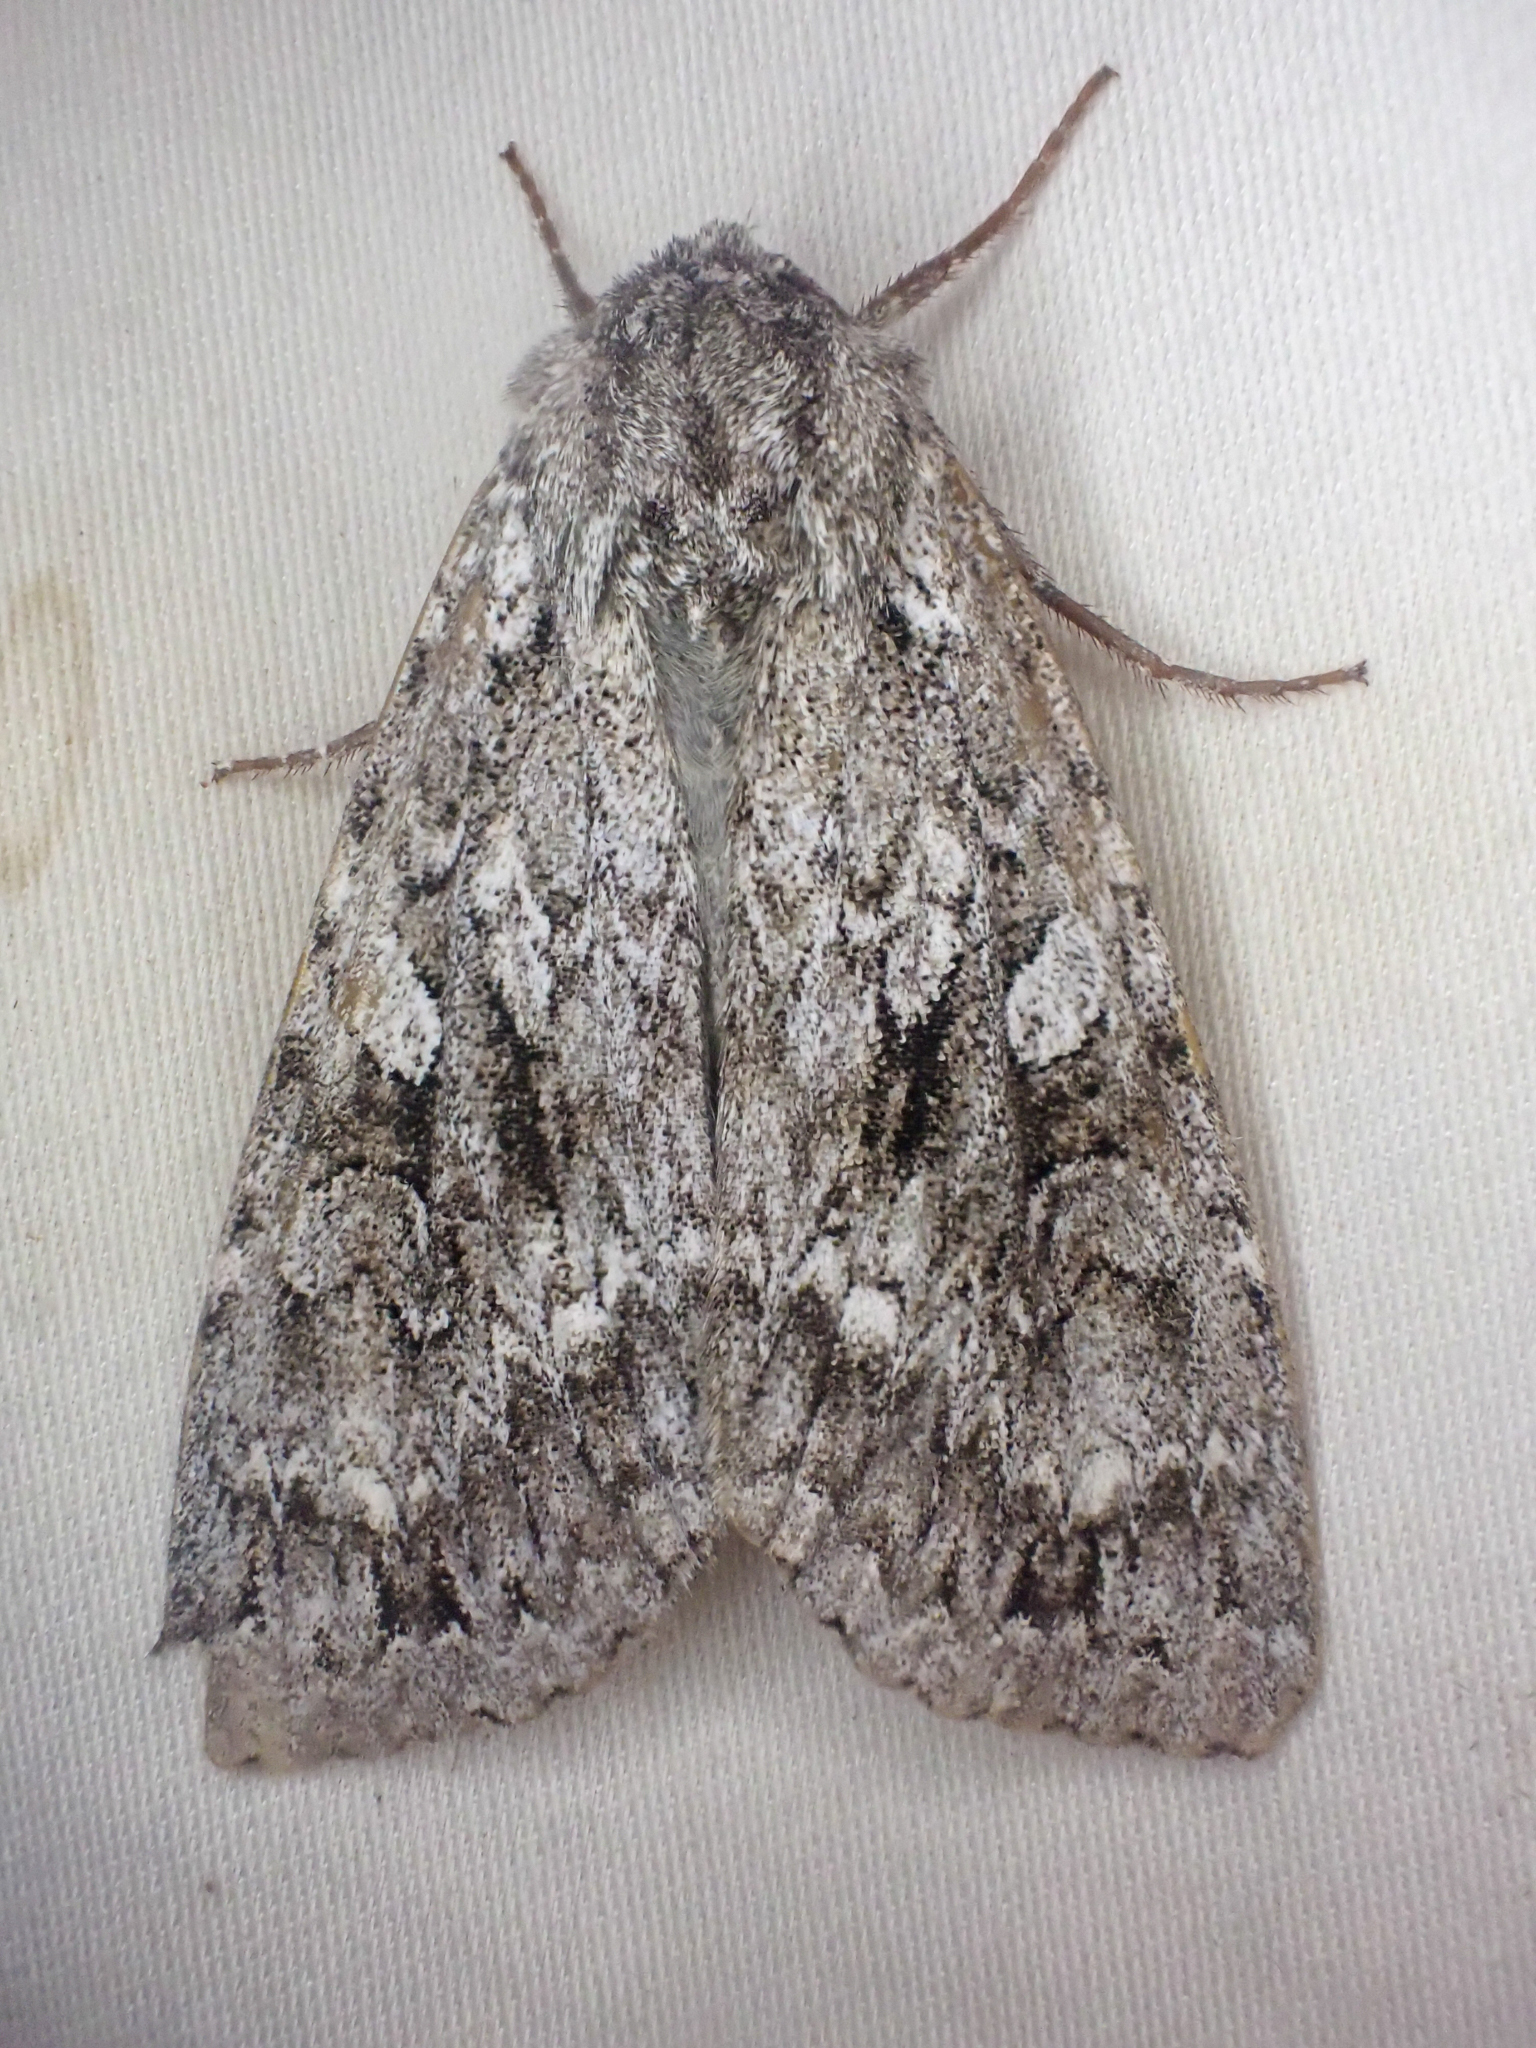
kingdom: Animalia
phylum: Arthropoda
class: Insecta
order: Lepidoptera
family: Noctuidae
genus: Eurois
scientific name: Eurois occulta
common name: Great brocade
